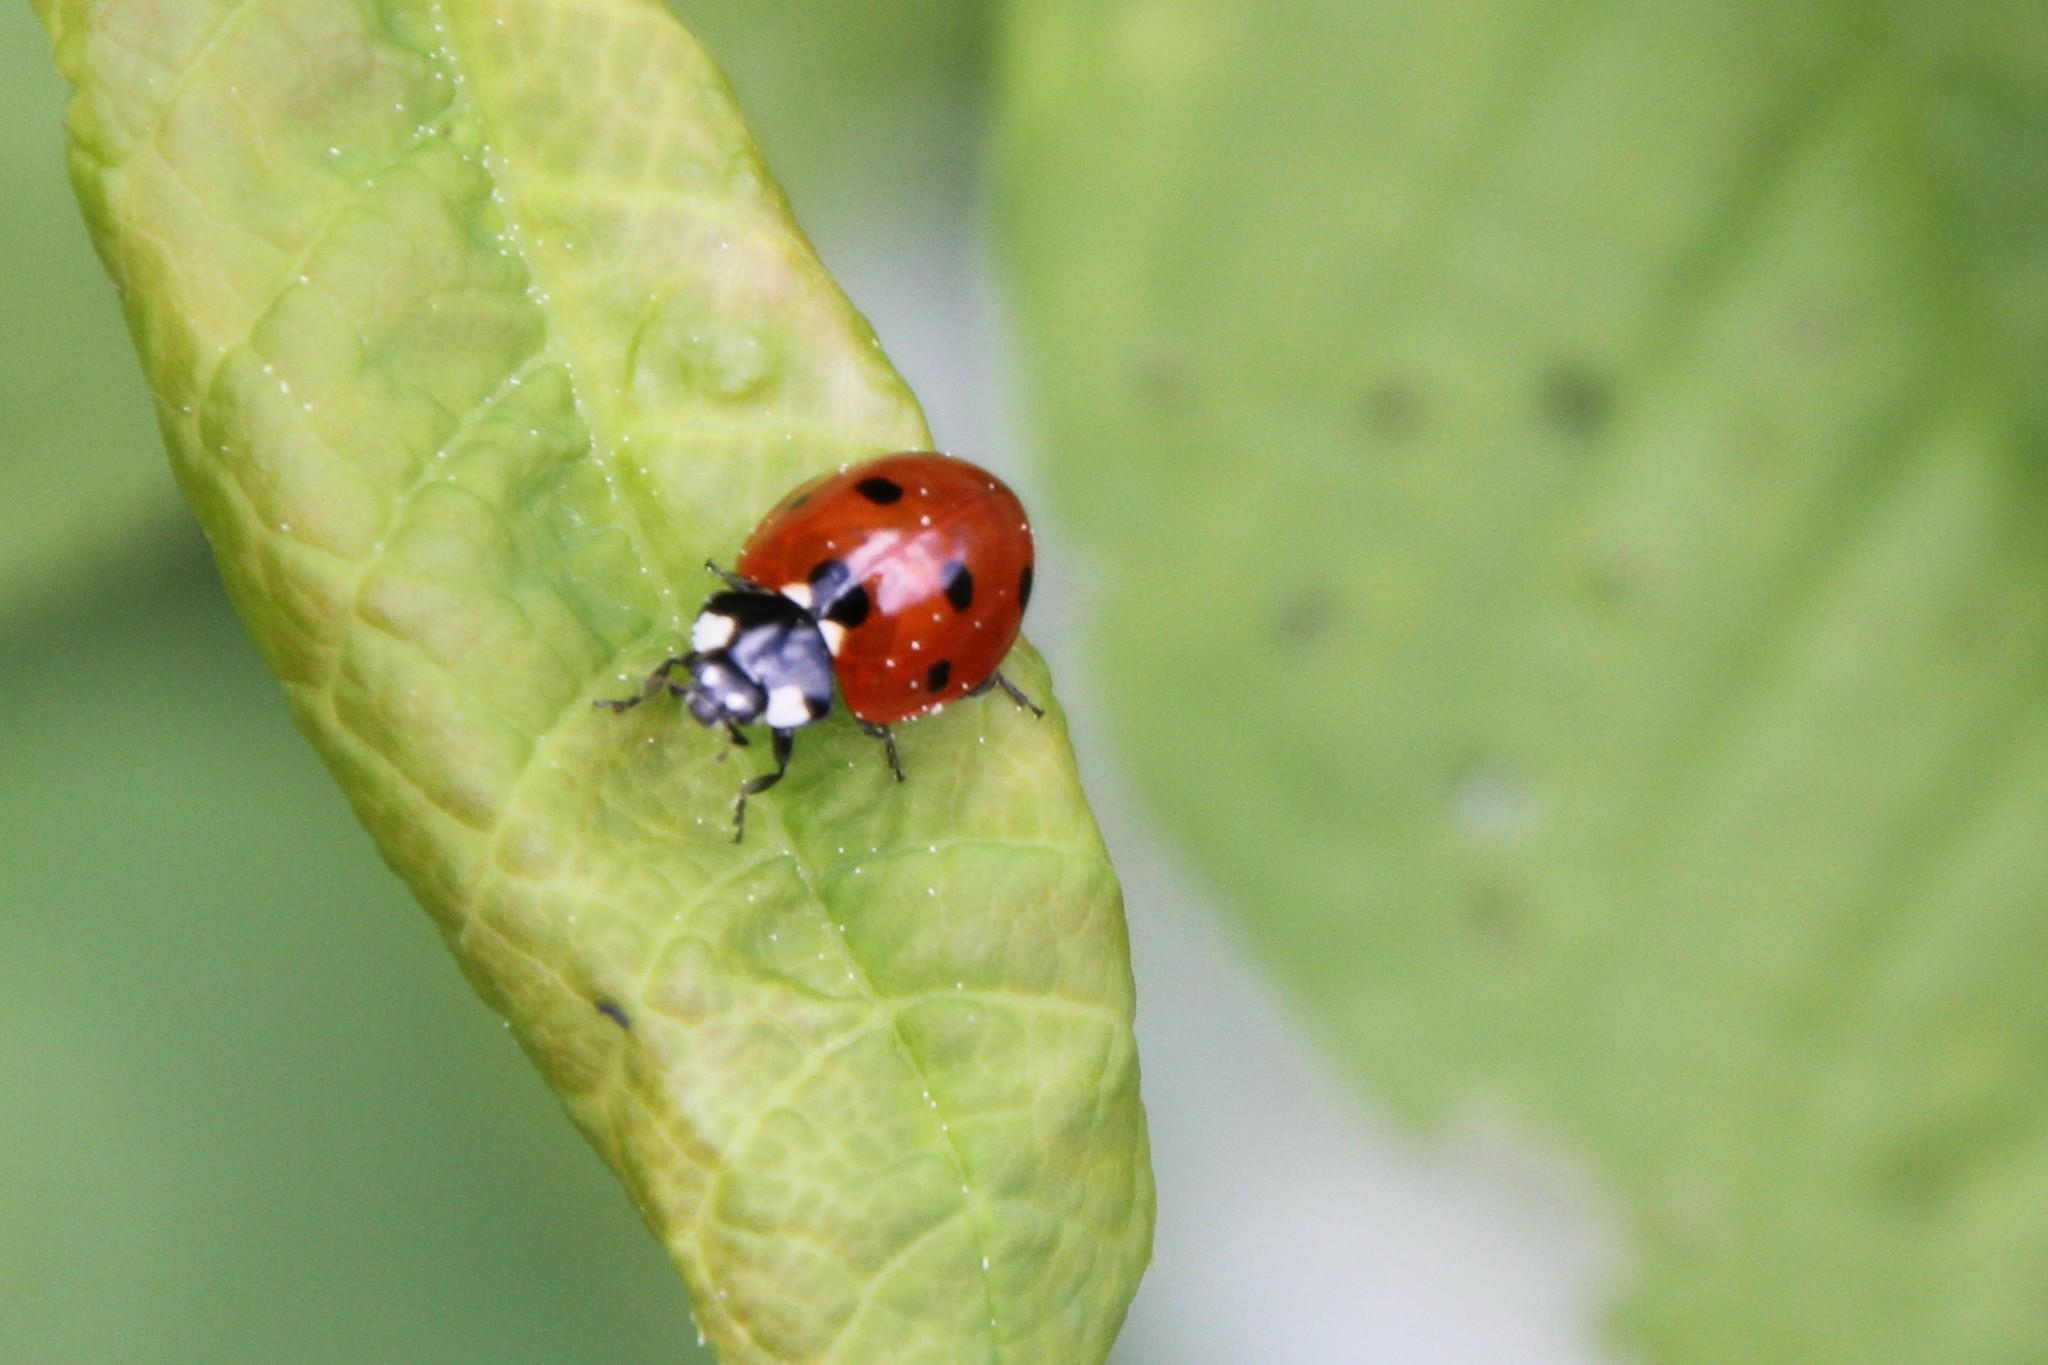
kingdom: Animalia
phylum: Arthropoda
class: Insecta
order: Coleoptera
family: Coccinellidae
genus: Coccinella
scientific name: Coccinella septempunctata
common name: Sevenspotted lady beetle
